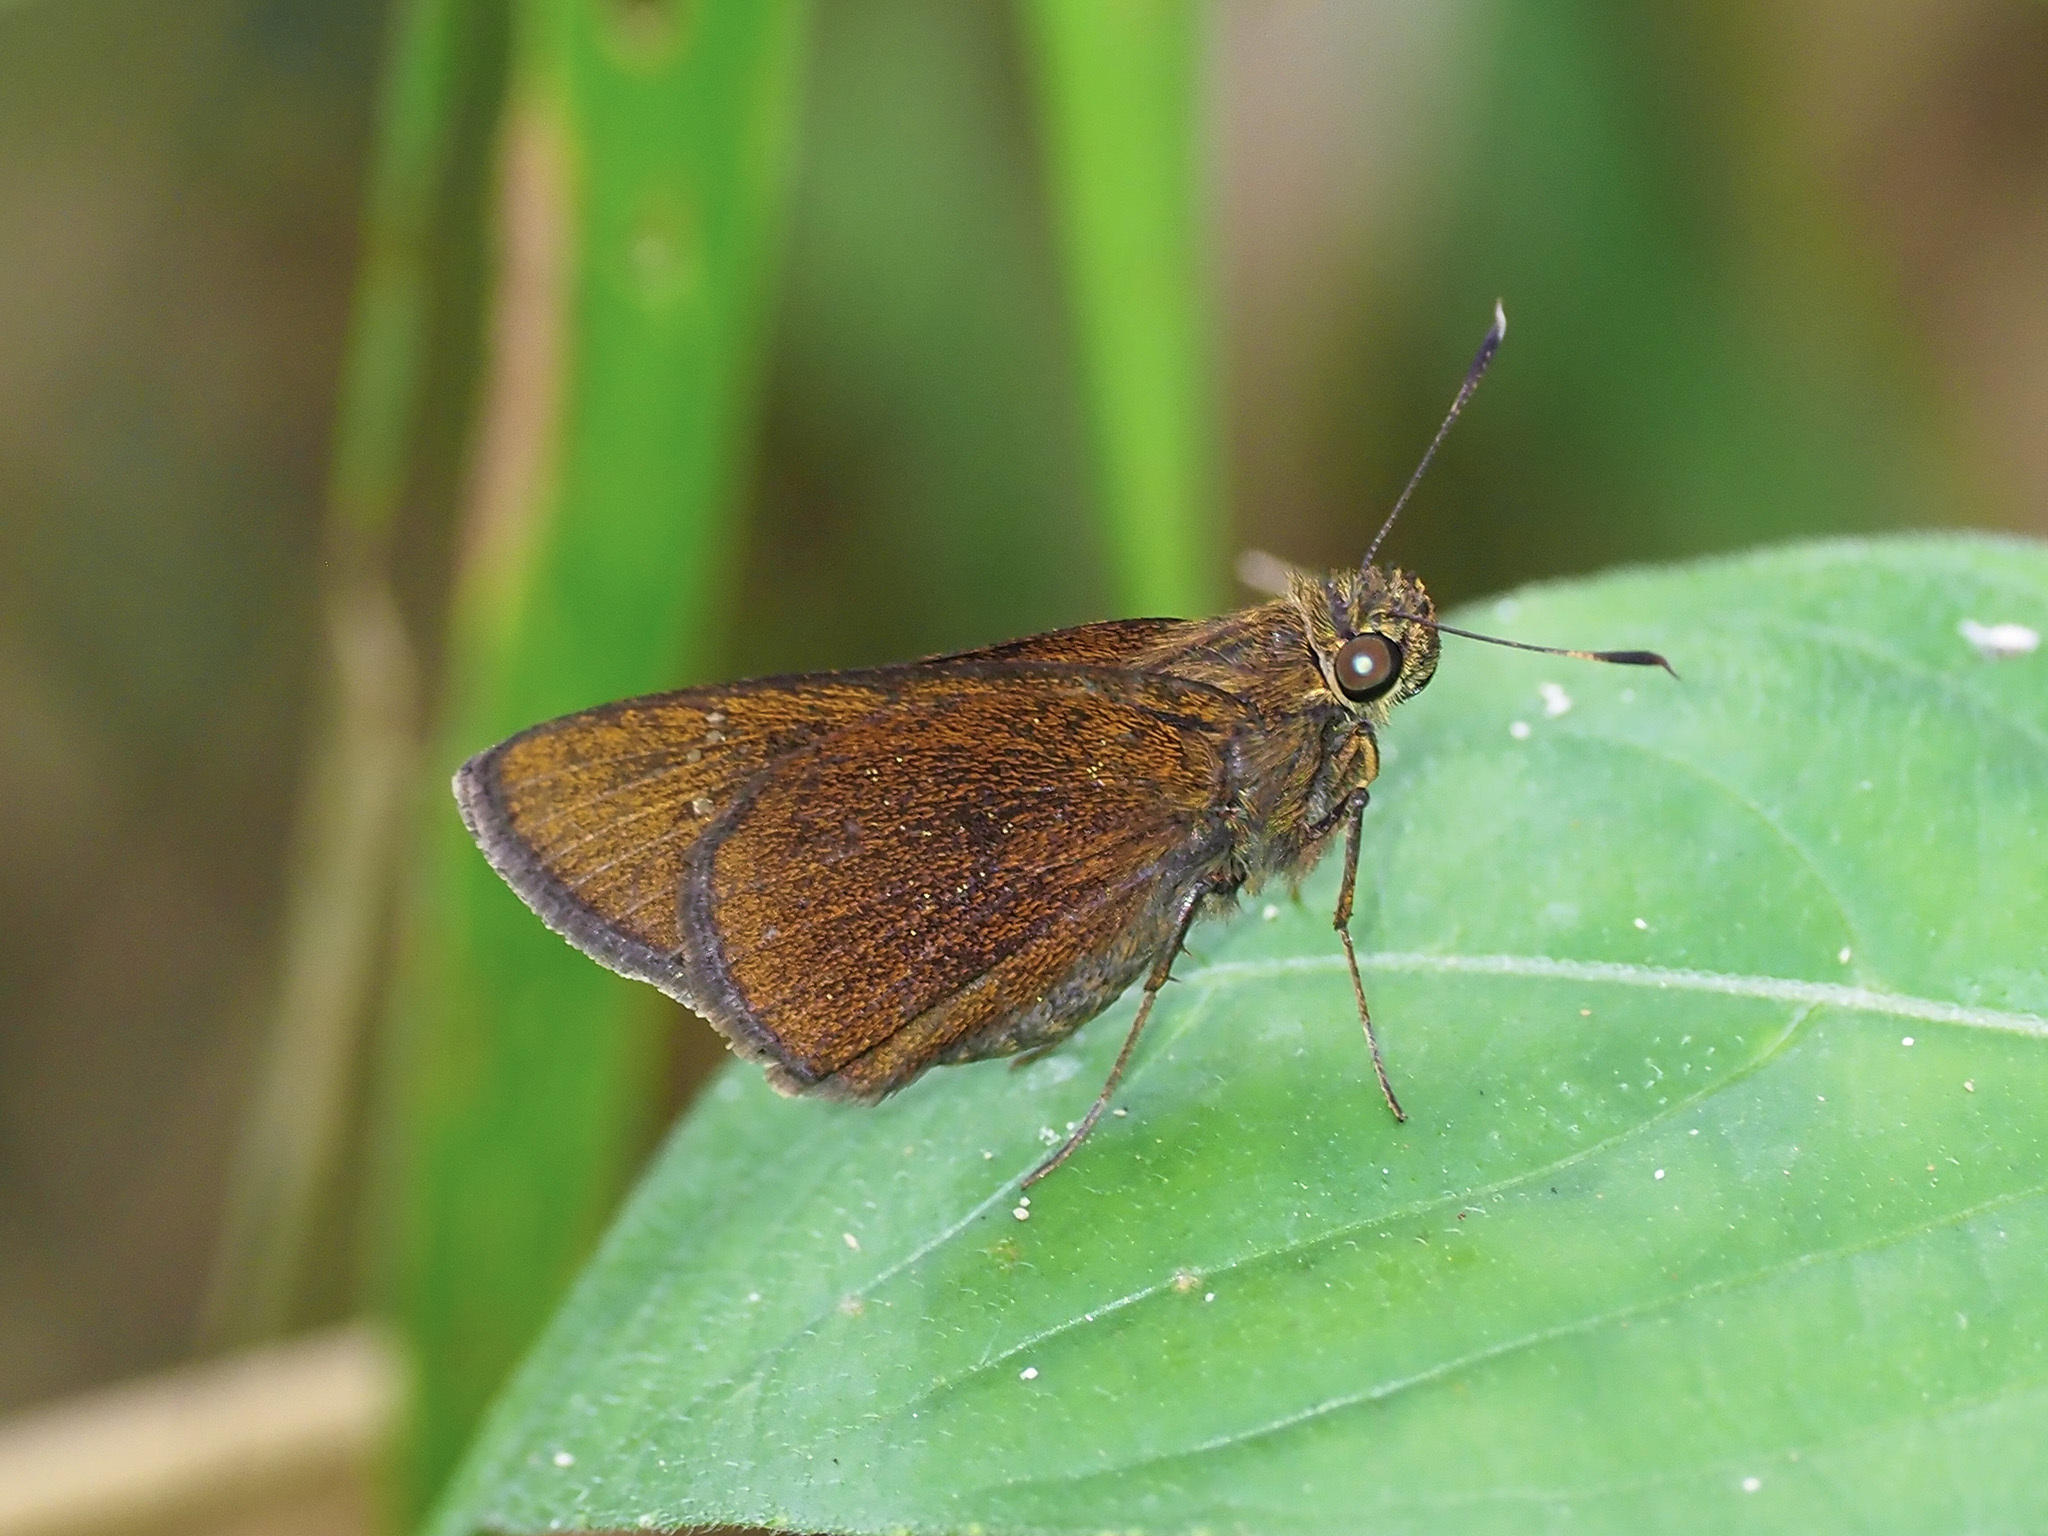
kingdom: Animalia
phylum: Arthropoda
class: Insecta
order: Lepidoptera
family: Hesperiidae
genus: Caltoris
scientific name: Caltoris cormasa
